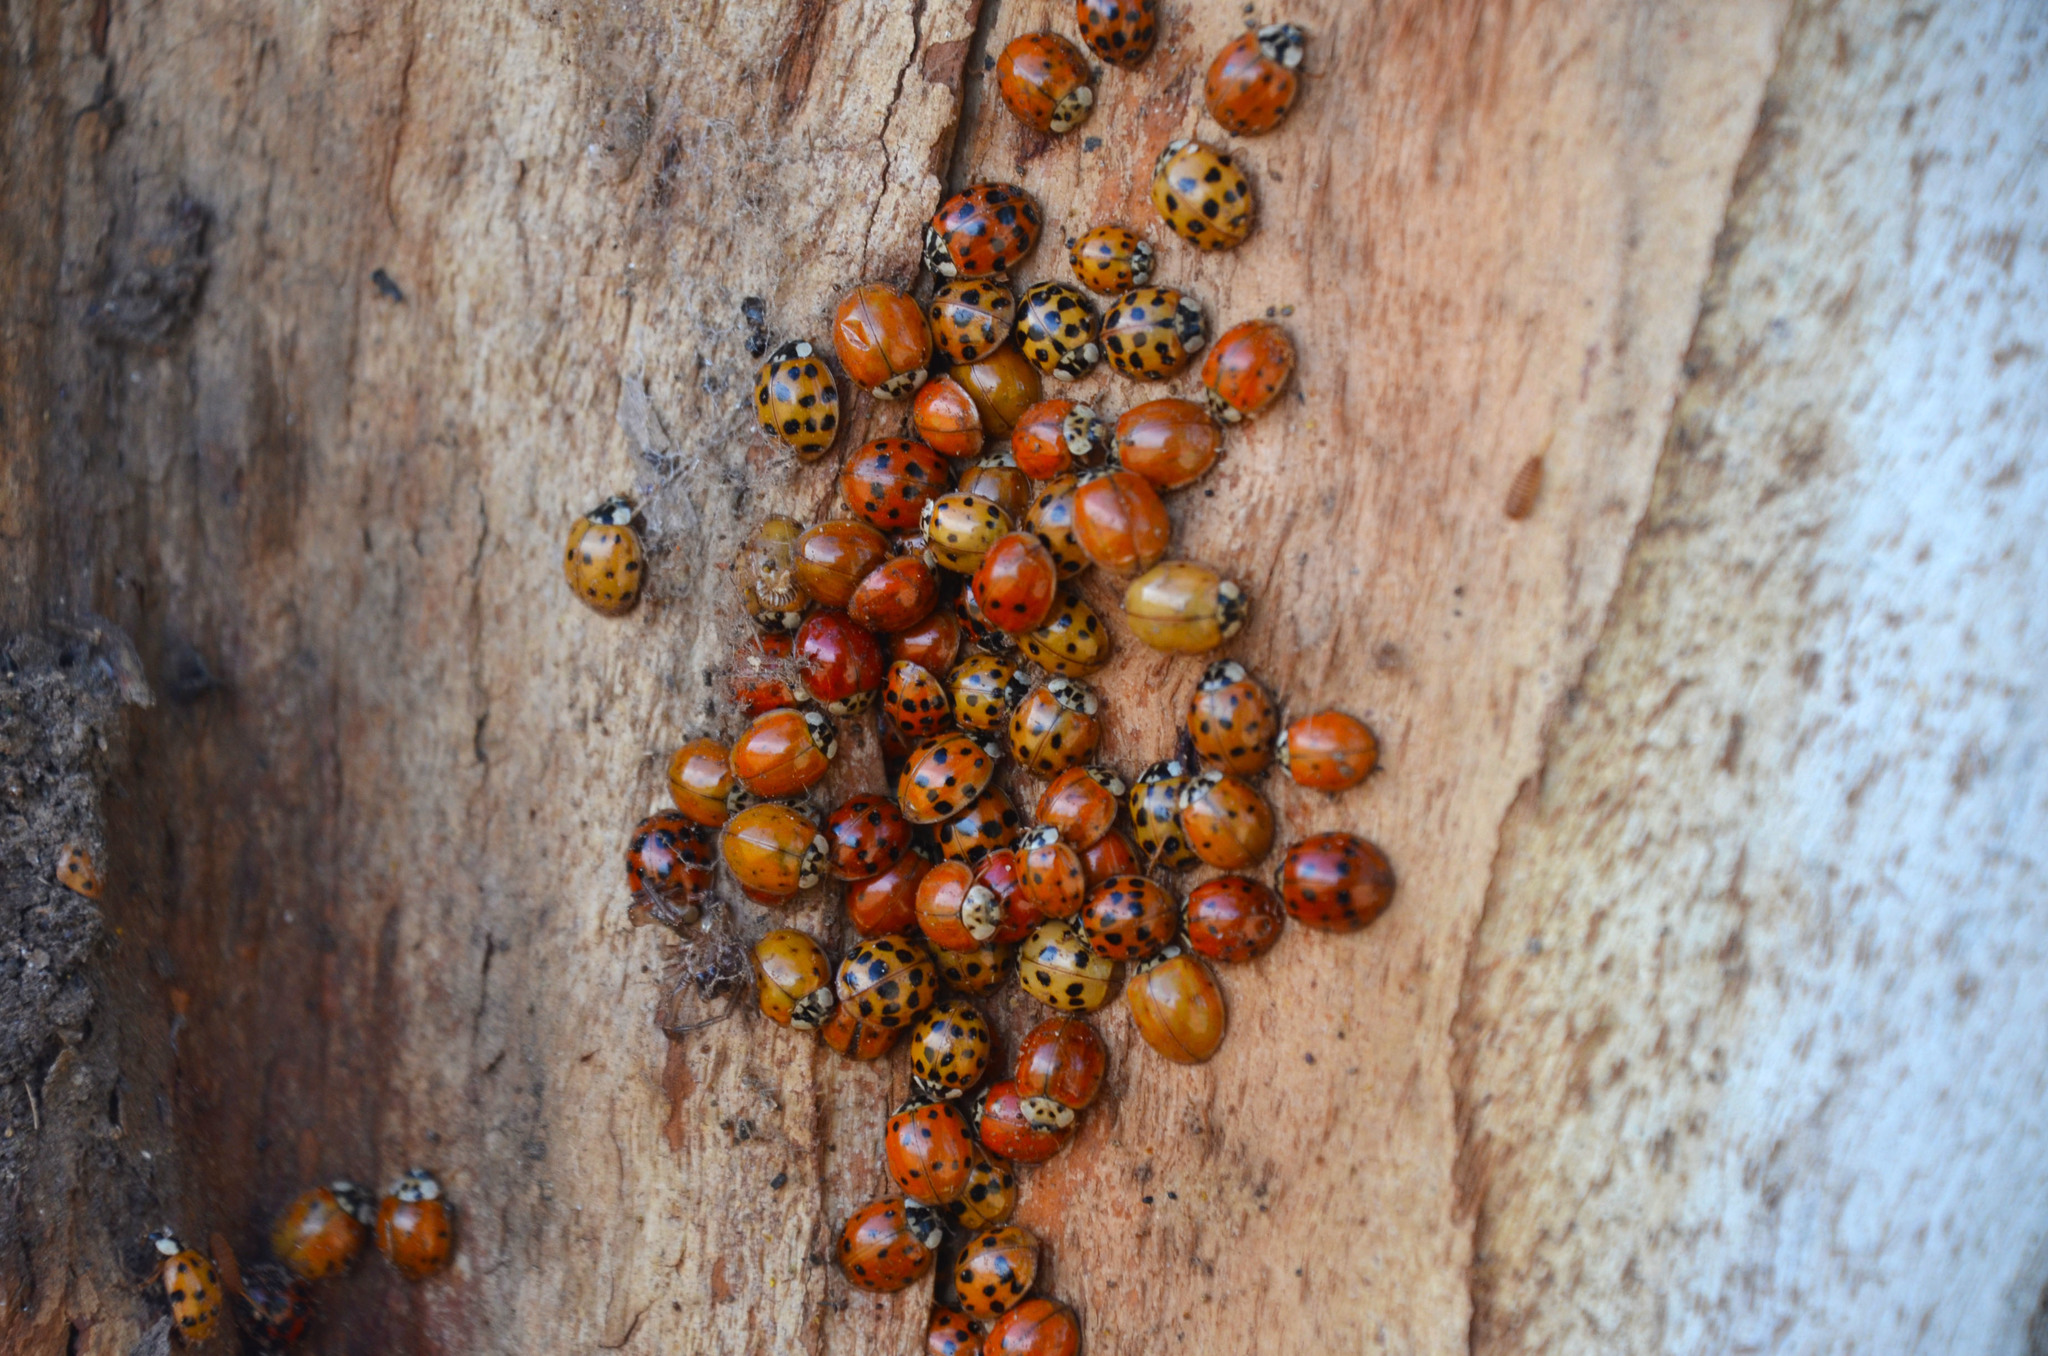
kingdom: Animalia
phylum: Arthropoda
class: Insecta
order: Coleoptera
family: Coccinellidae
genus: Harmonia
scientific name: Harmonia axyridis
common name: Harlequin ladybird
